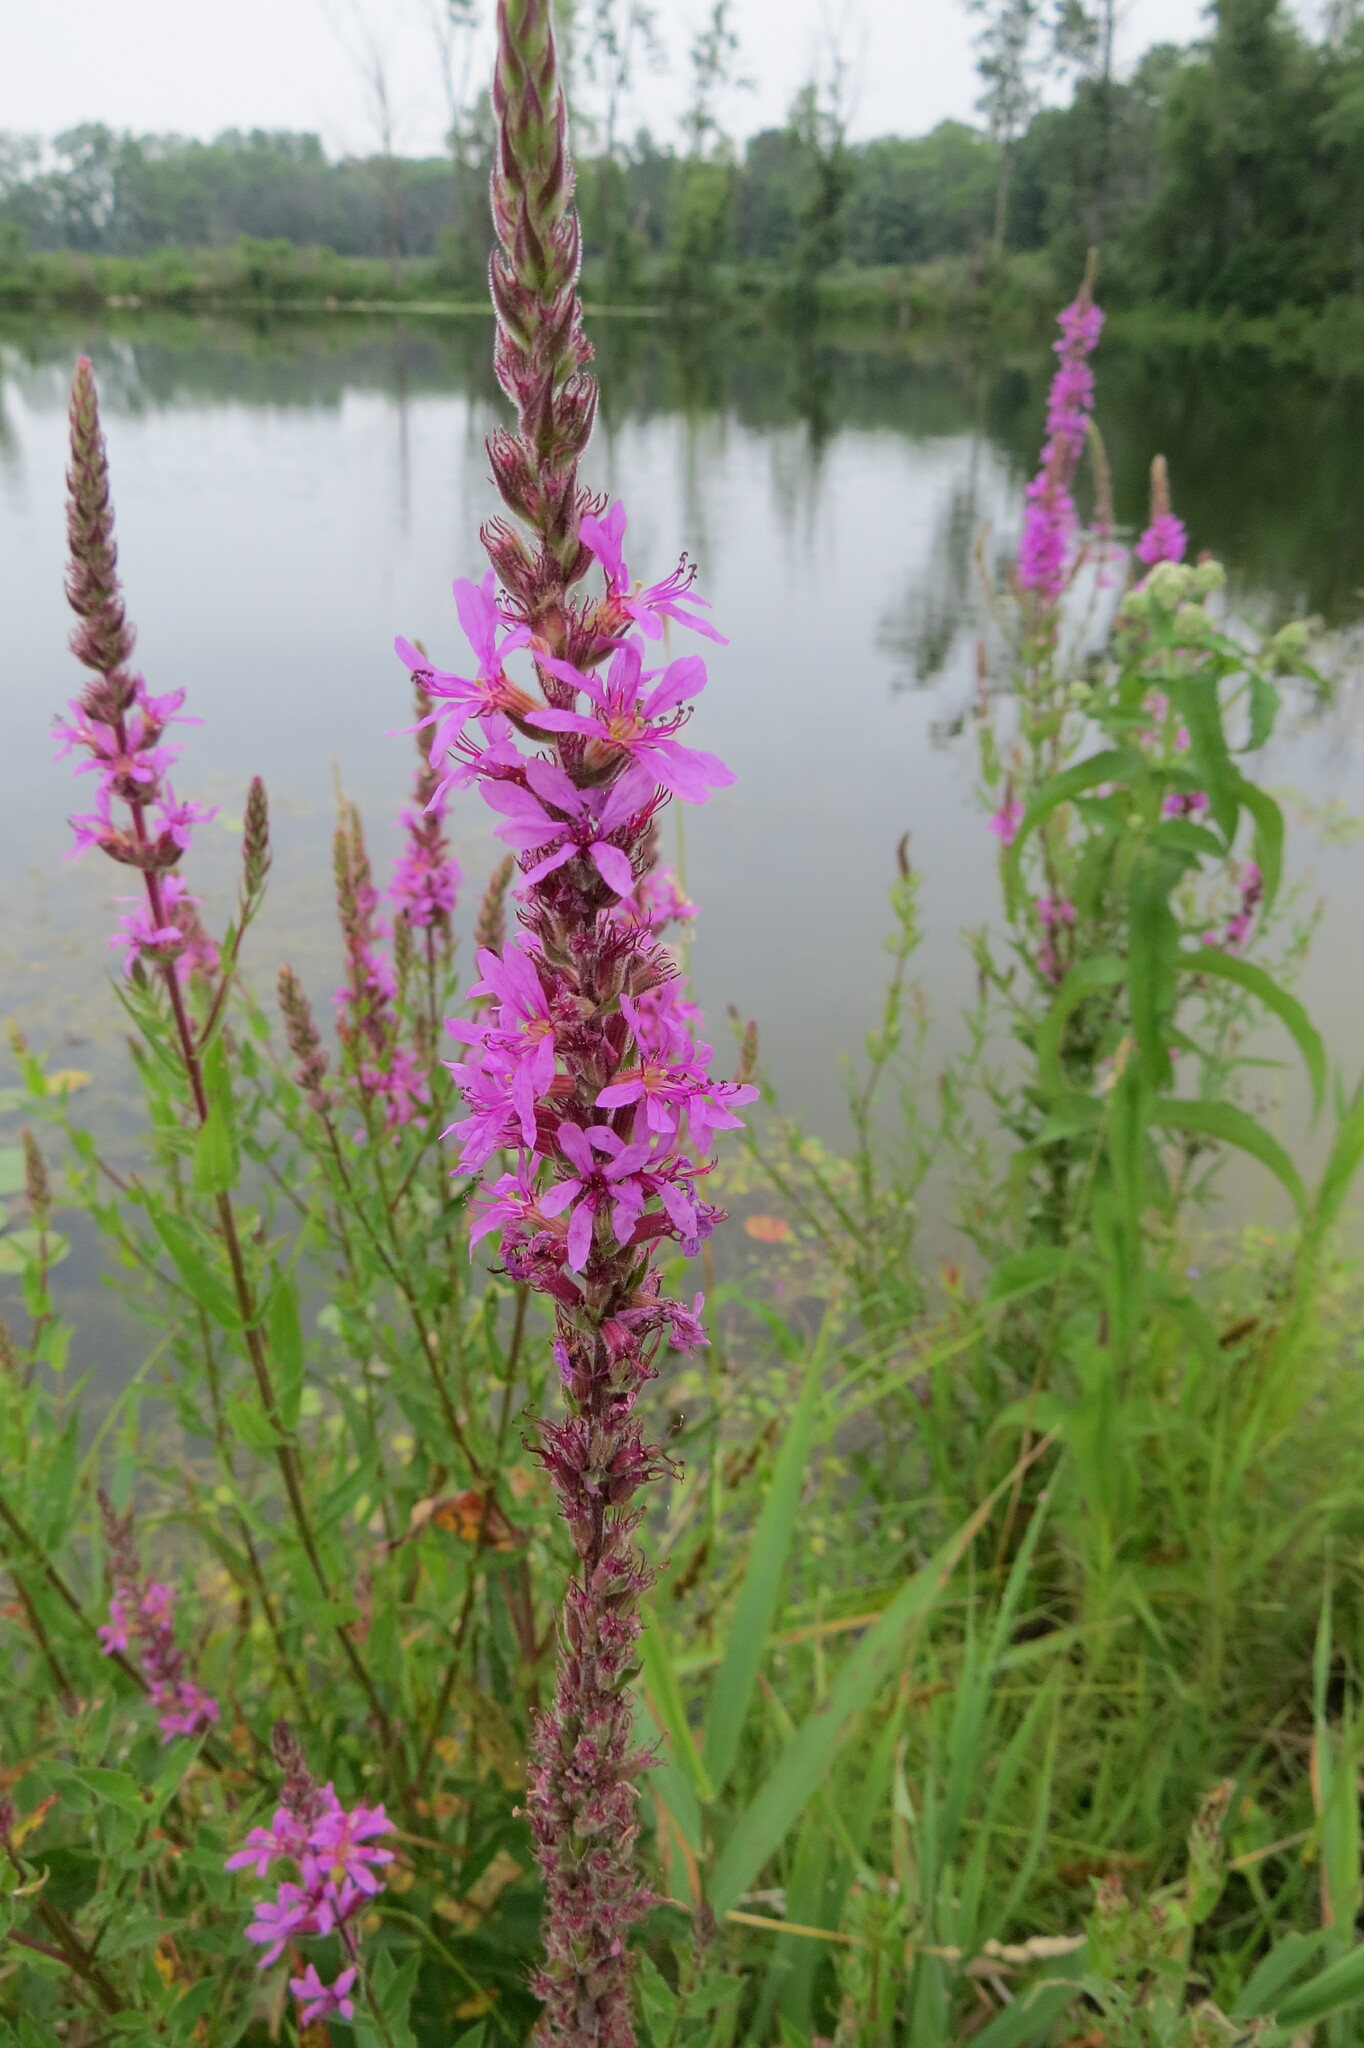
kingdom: Plantae
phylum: Tracheophyta
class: Magnoliopsida
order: Myrtales
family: Lythraceae
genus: Lythrum
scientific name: Lythrum salicaria
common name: Purple loosestrife
